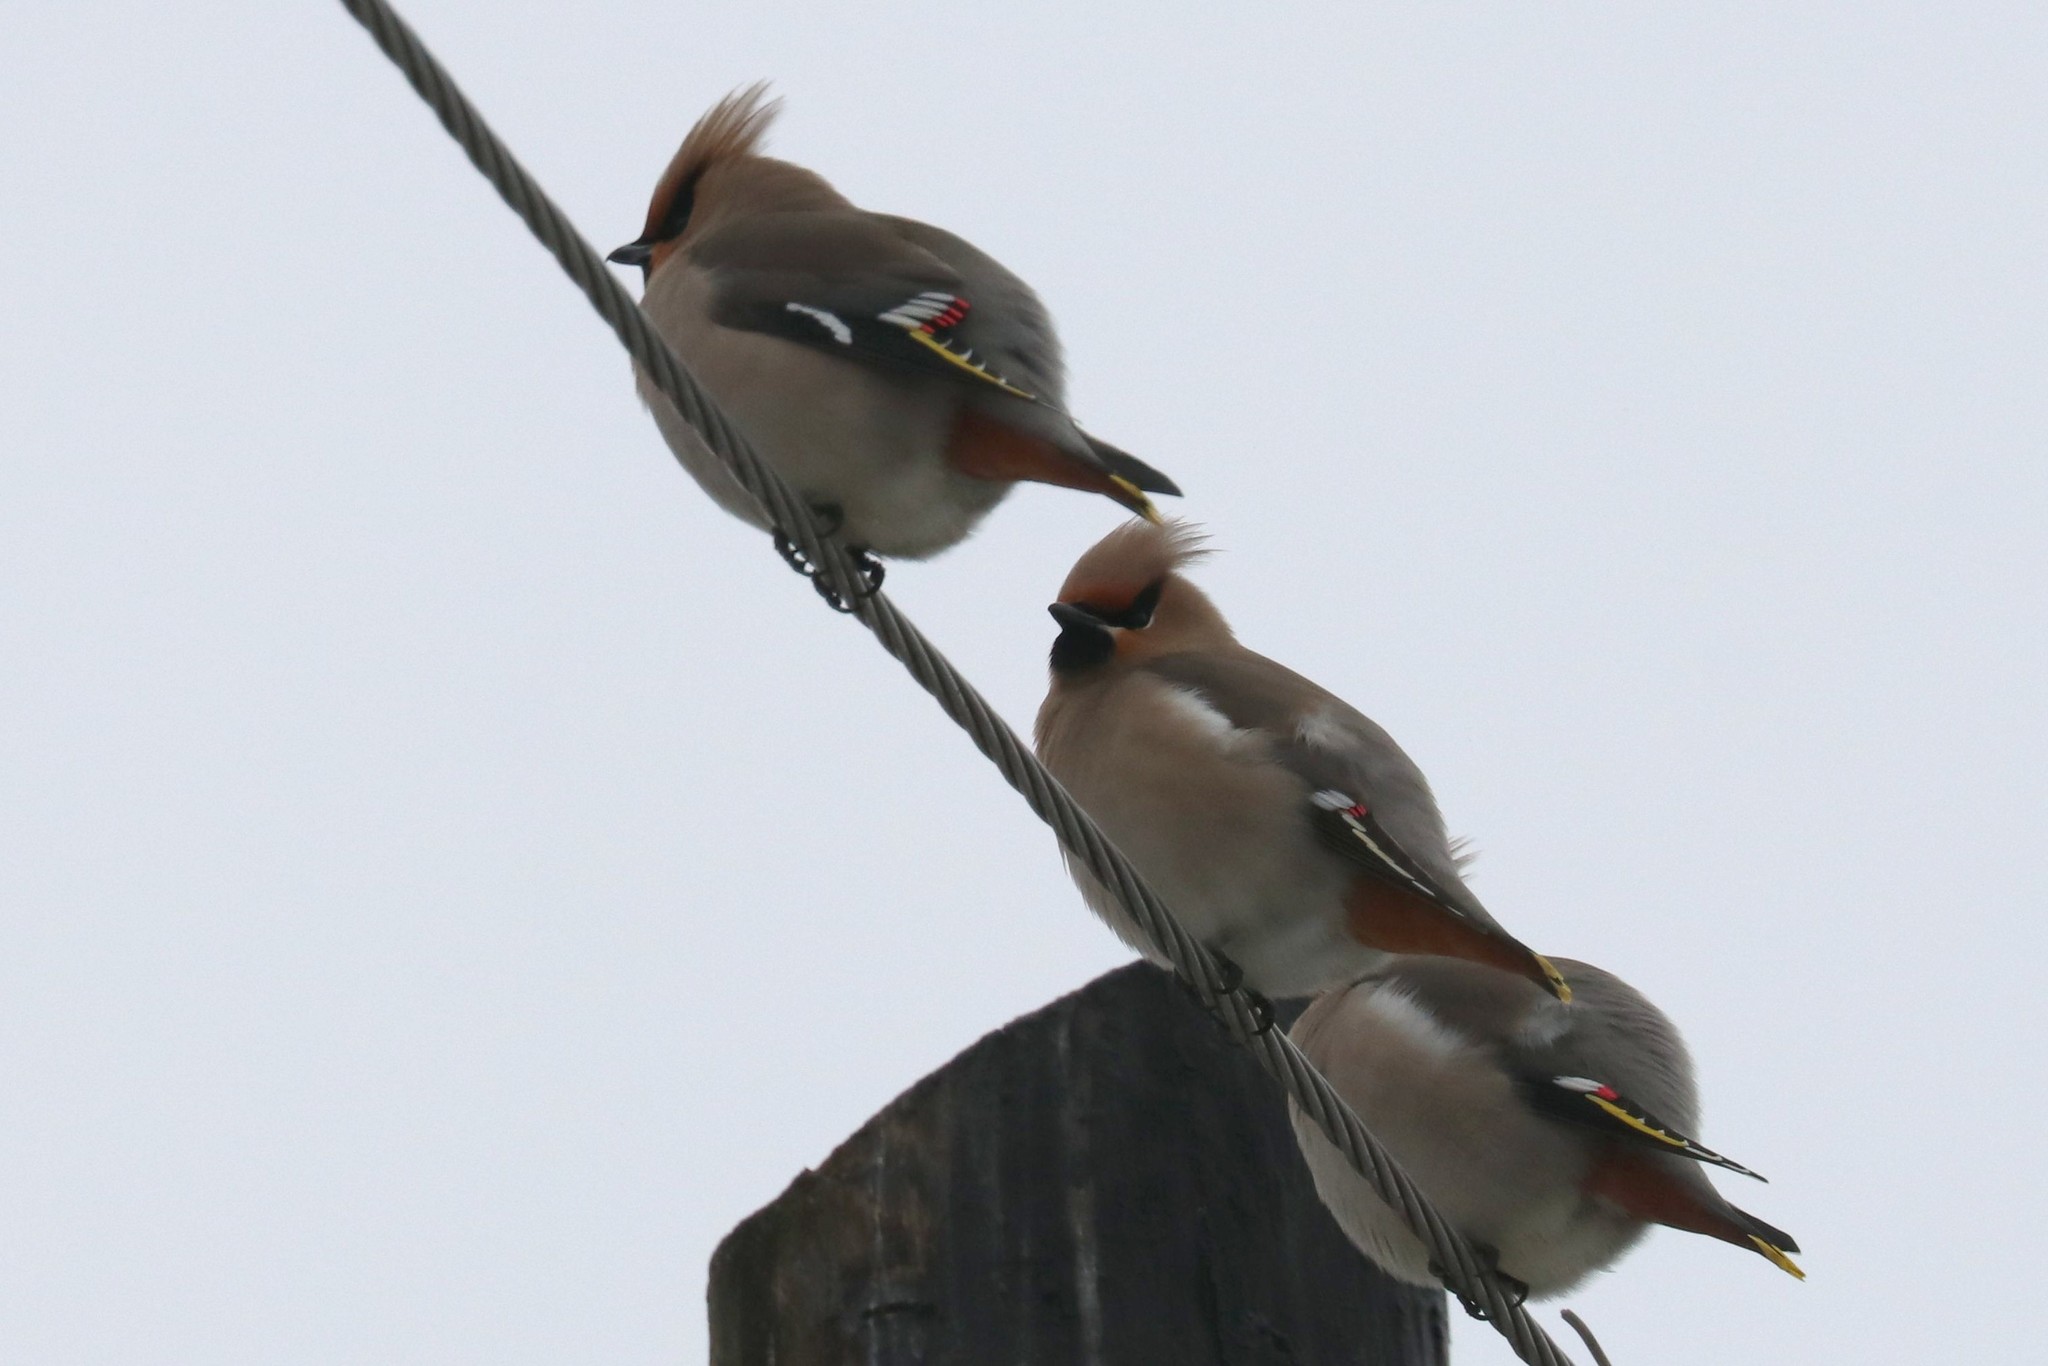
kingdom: Animalia
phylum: Chordata
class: Aves
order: Passeriformes
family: Bombycillidae
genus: Bombycilla
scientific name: Bombycilla garrulus
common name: Bohemian waxwing
